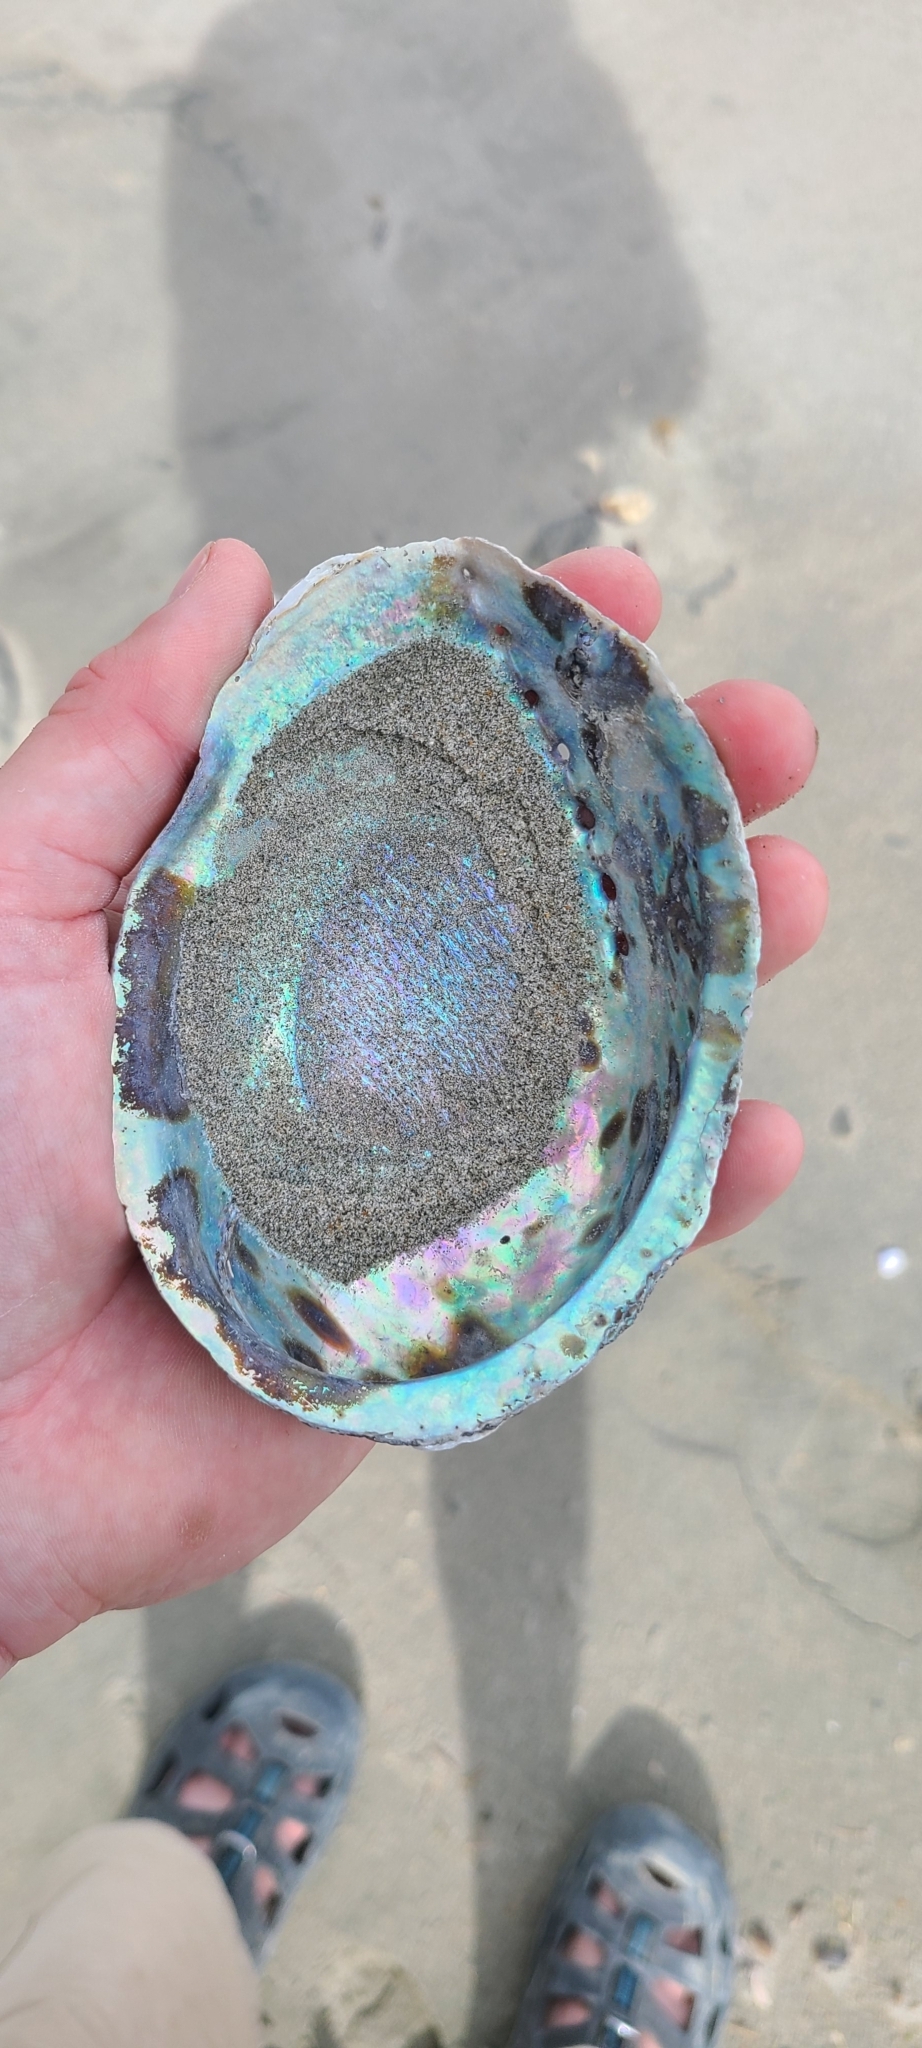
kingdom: Animalia
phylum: Mollusca
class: Gastropoda
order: Lepetellida
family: Haliotidae
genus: Haliotis
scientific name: Haliotis iris
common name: Abalone
